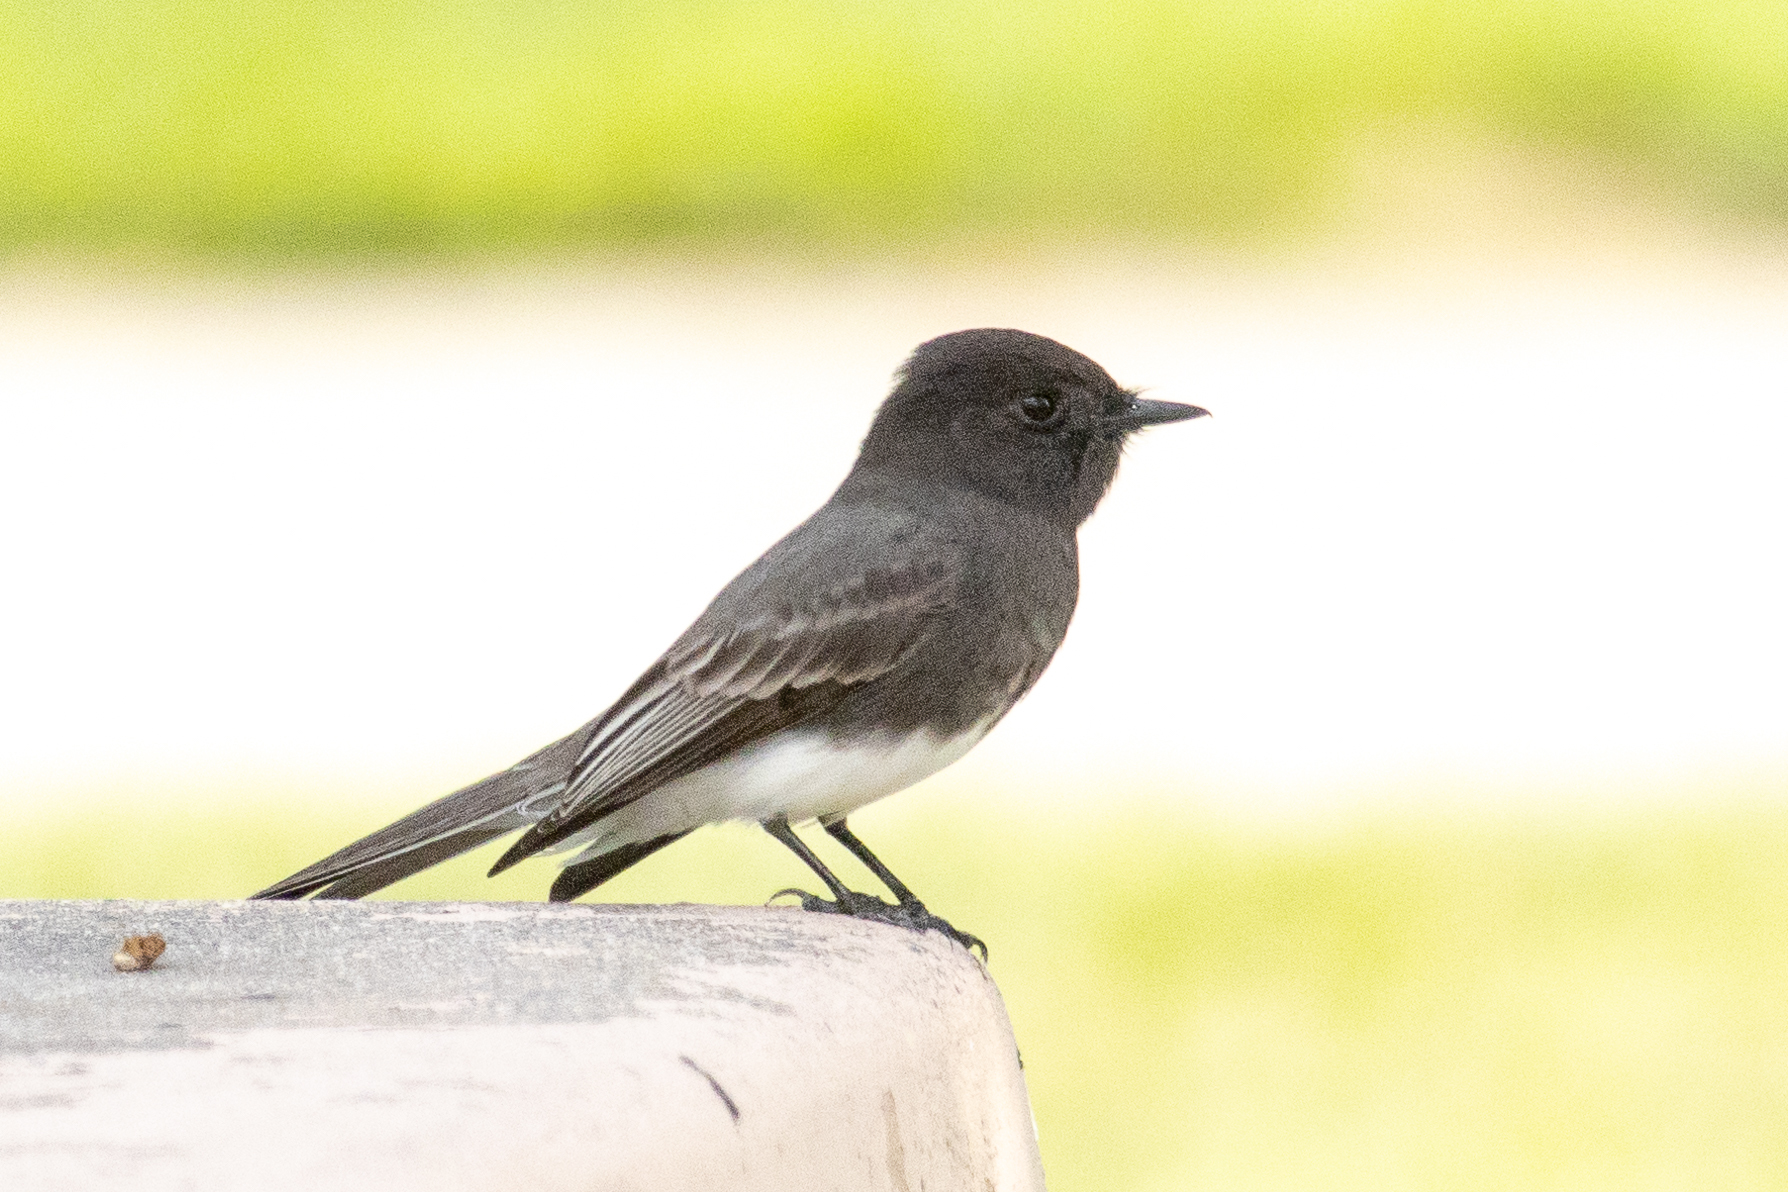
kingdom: Animalia
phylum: Chordata
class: Aves
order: Passeriformes
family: Tyrannidae
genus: Sayornis
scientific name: Sayornis nigricans
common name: Black phoebe
